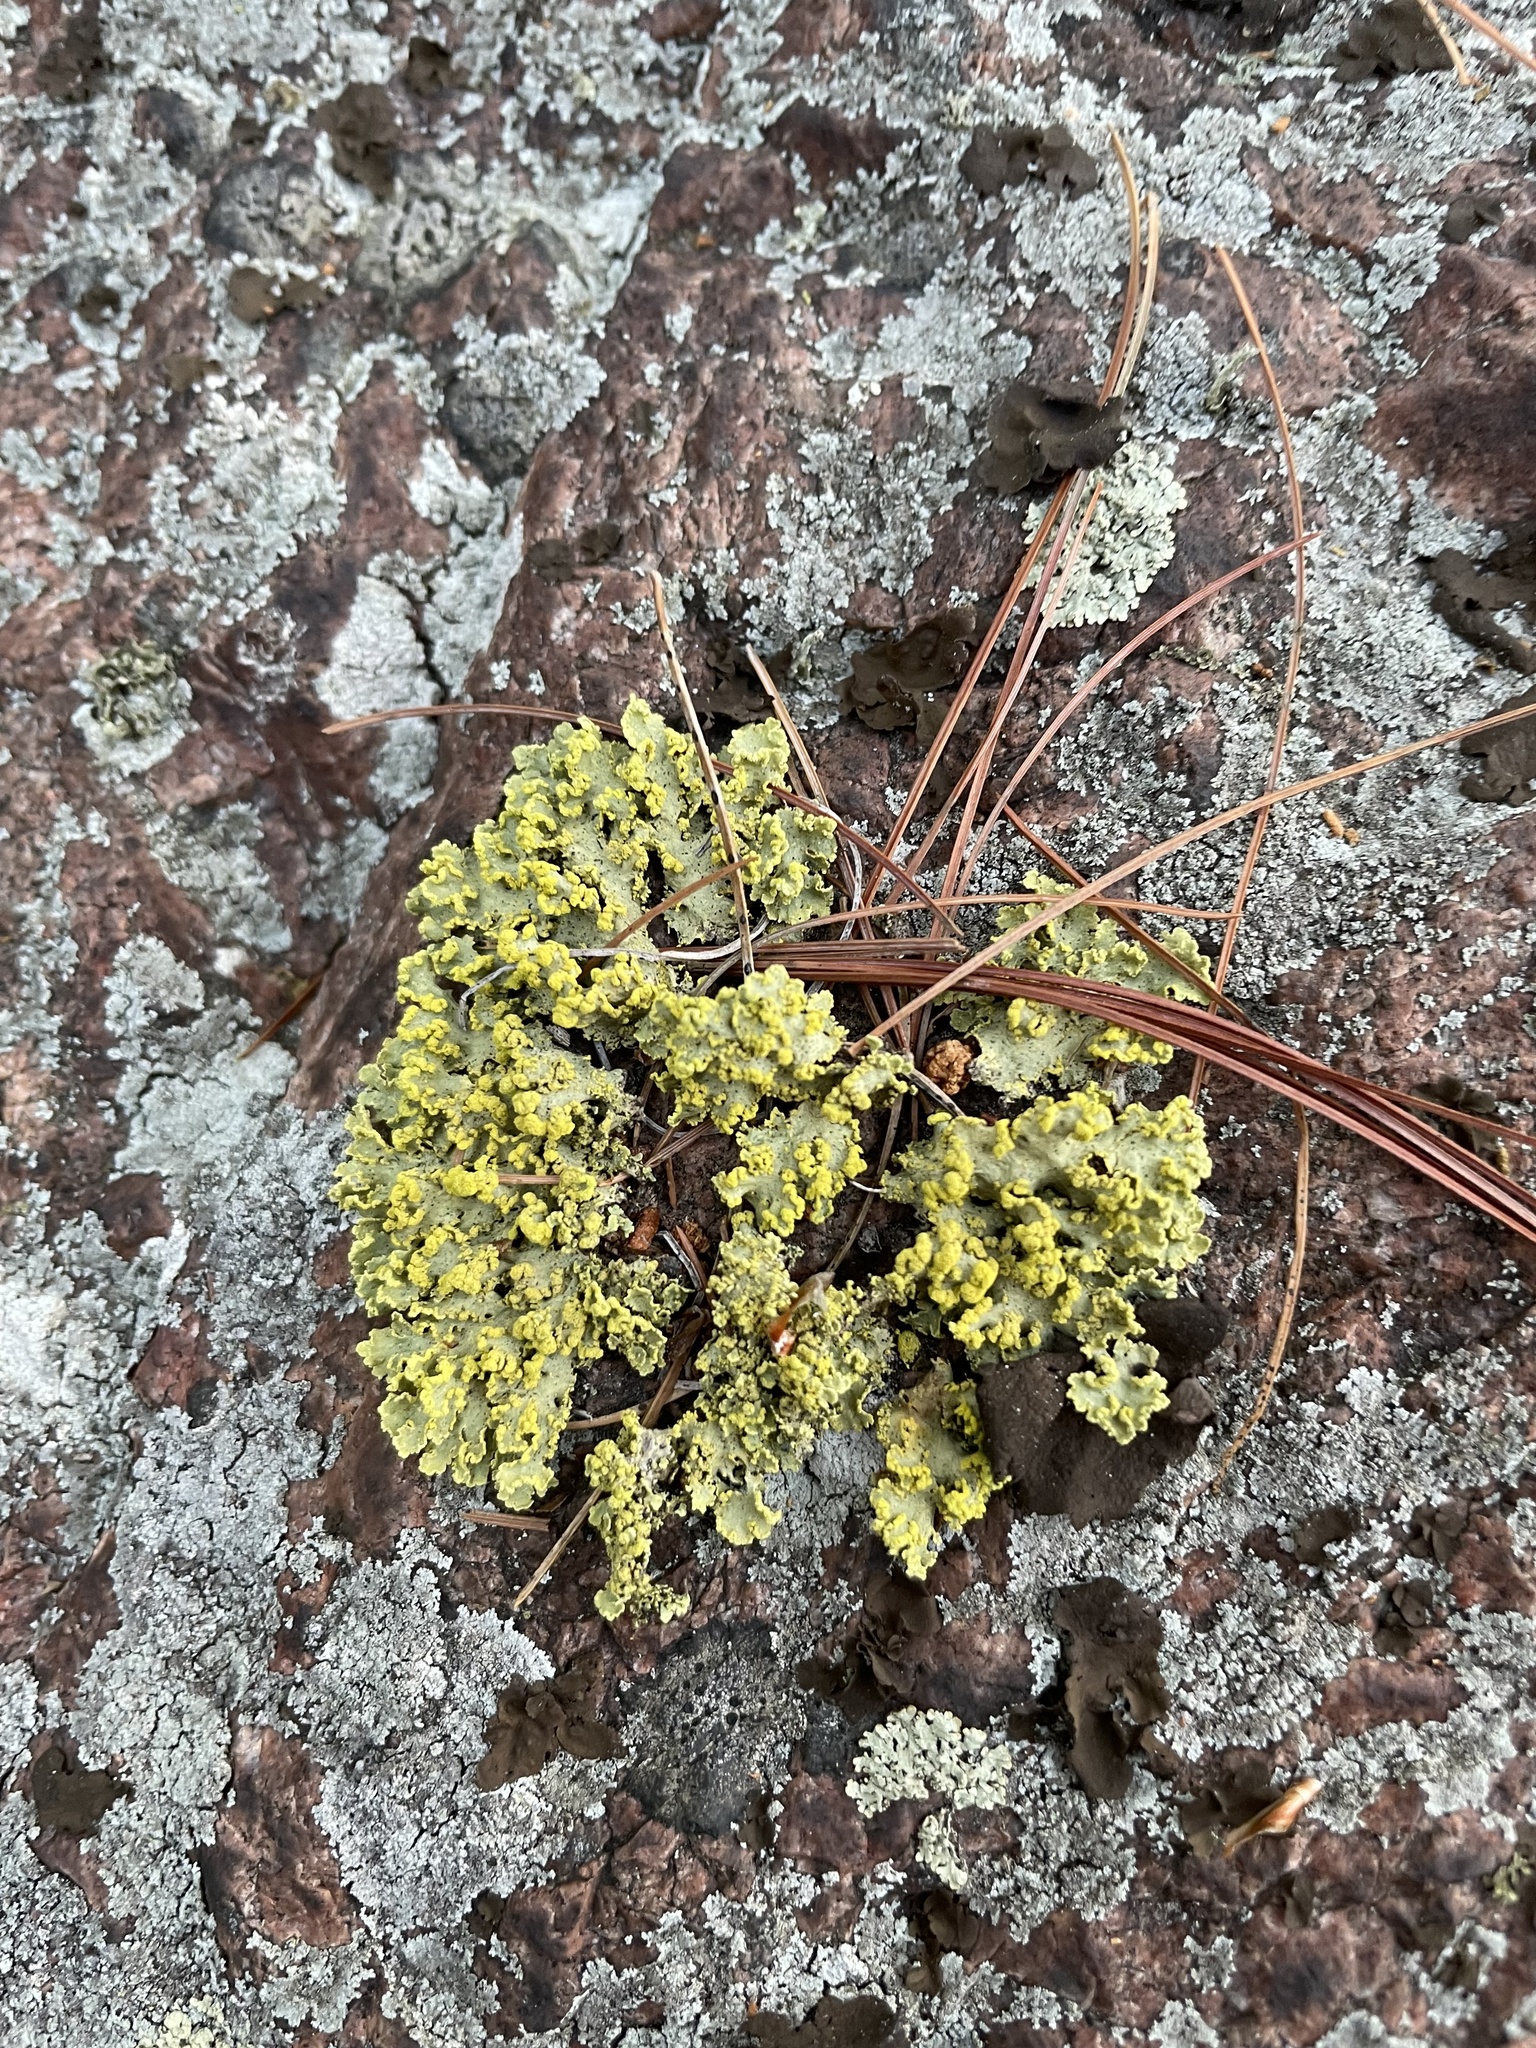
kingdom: Fungi
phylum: Ascomycota
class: Lecanoromycetes
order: Lecanorales
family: Parmeliaceae
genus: Vulpicida
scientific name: Vulpicida pinastri
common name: Powdered sunshine lichen
